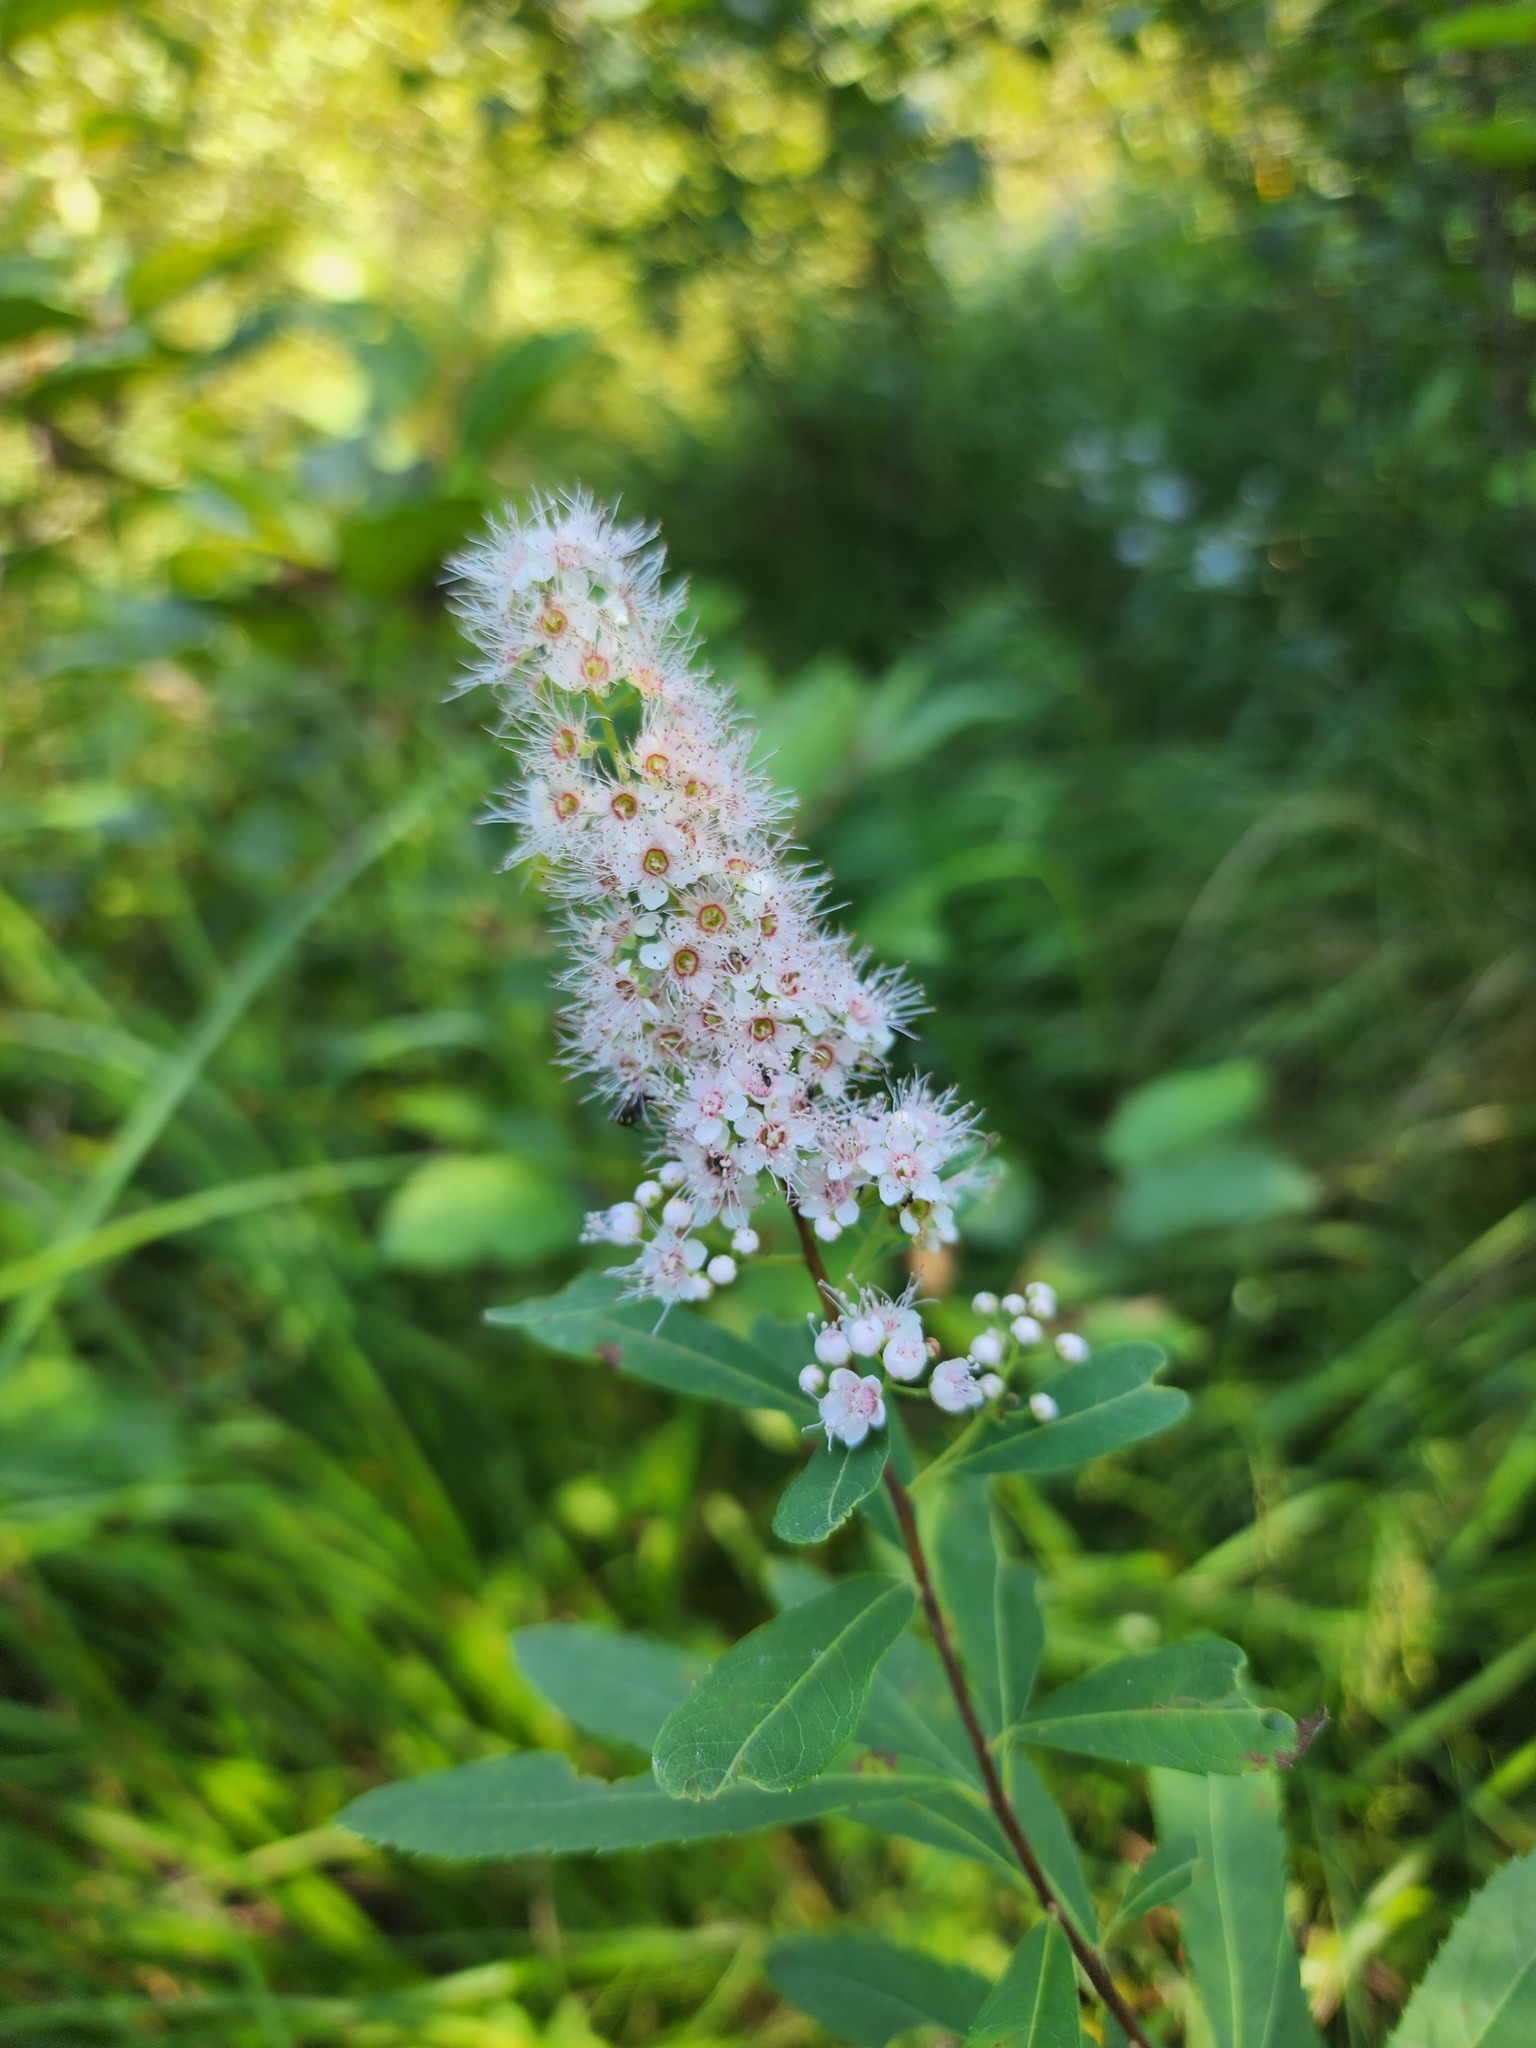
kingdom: Plantae
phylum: Tracheophyta
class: Magnoliopsida
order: Rosales
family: Rosaceae
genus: Spiraea
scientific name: Spiraea alba
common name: Pale bridewort
